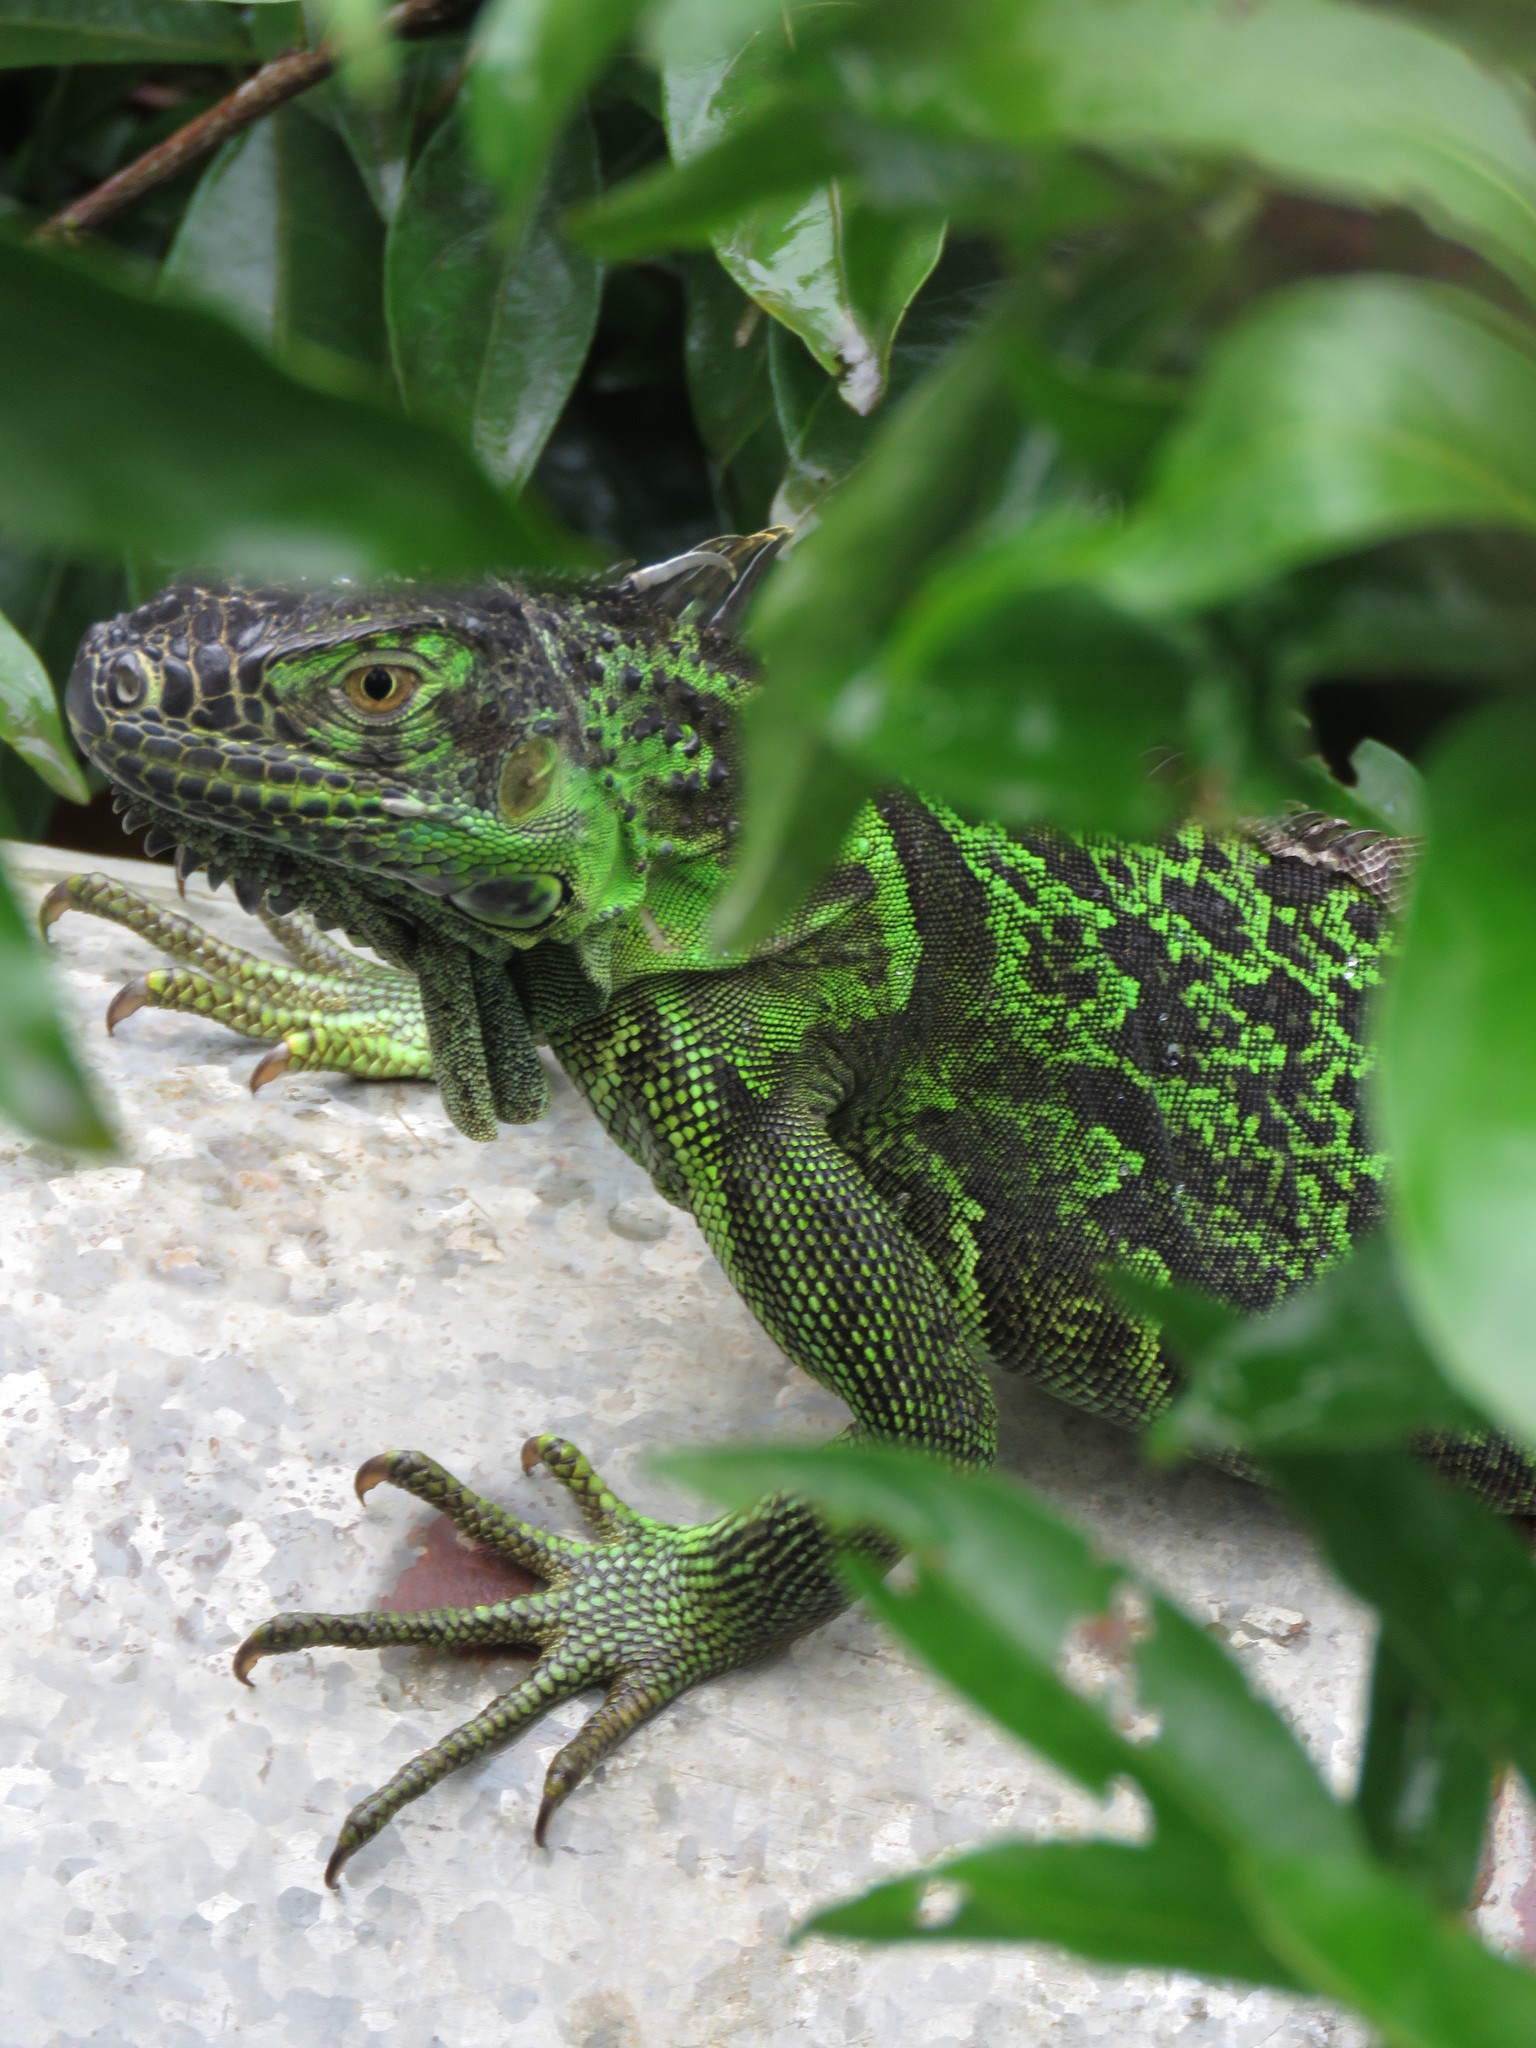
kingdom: Animalia
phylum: Chordata
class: Squamata
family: Iguanidae
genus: Iguana
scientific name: Iguana iguana
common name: Green iguana
